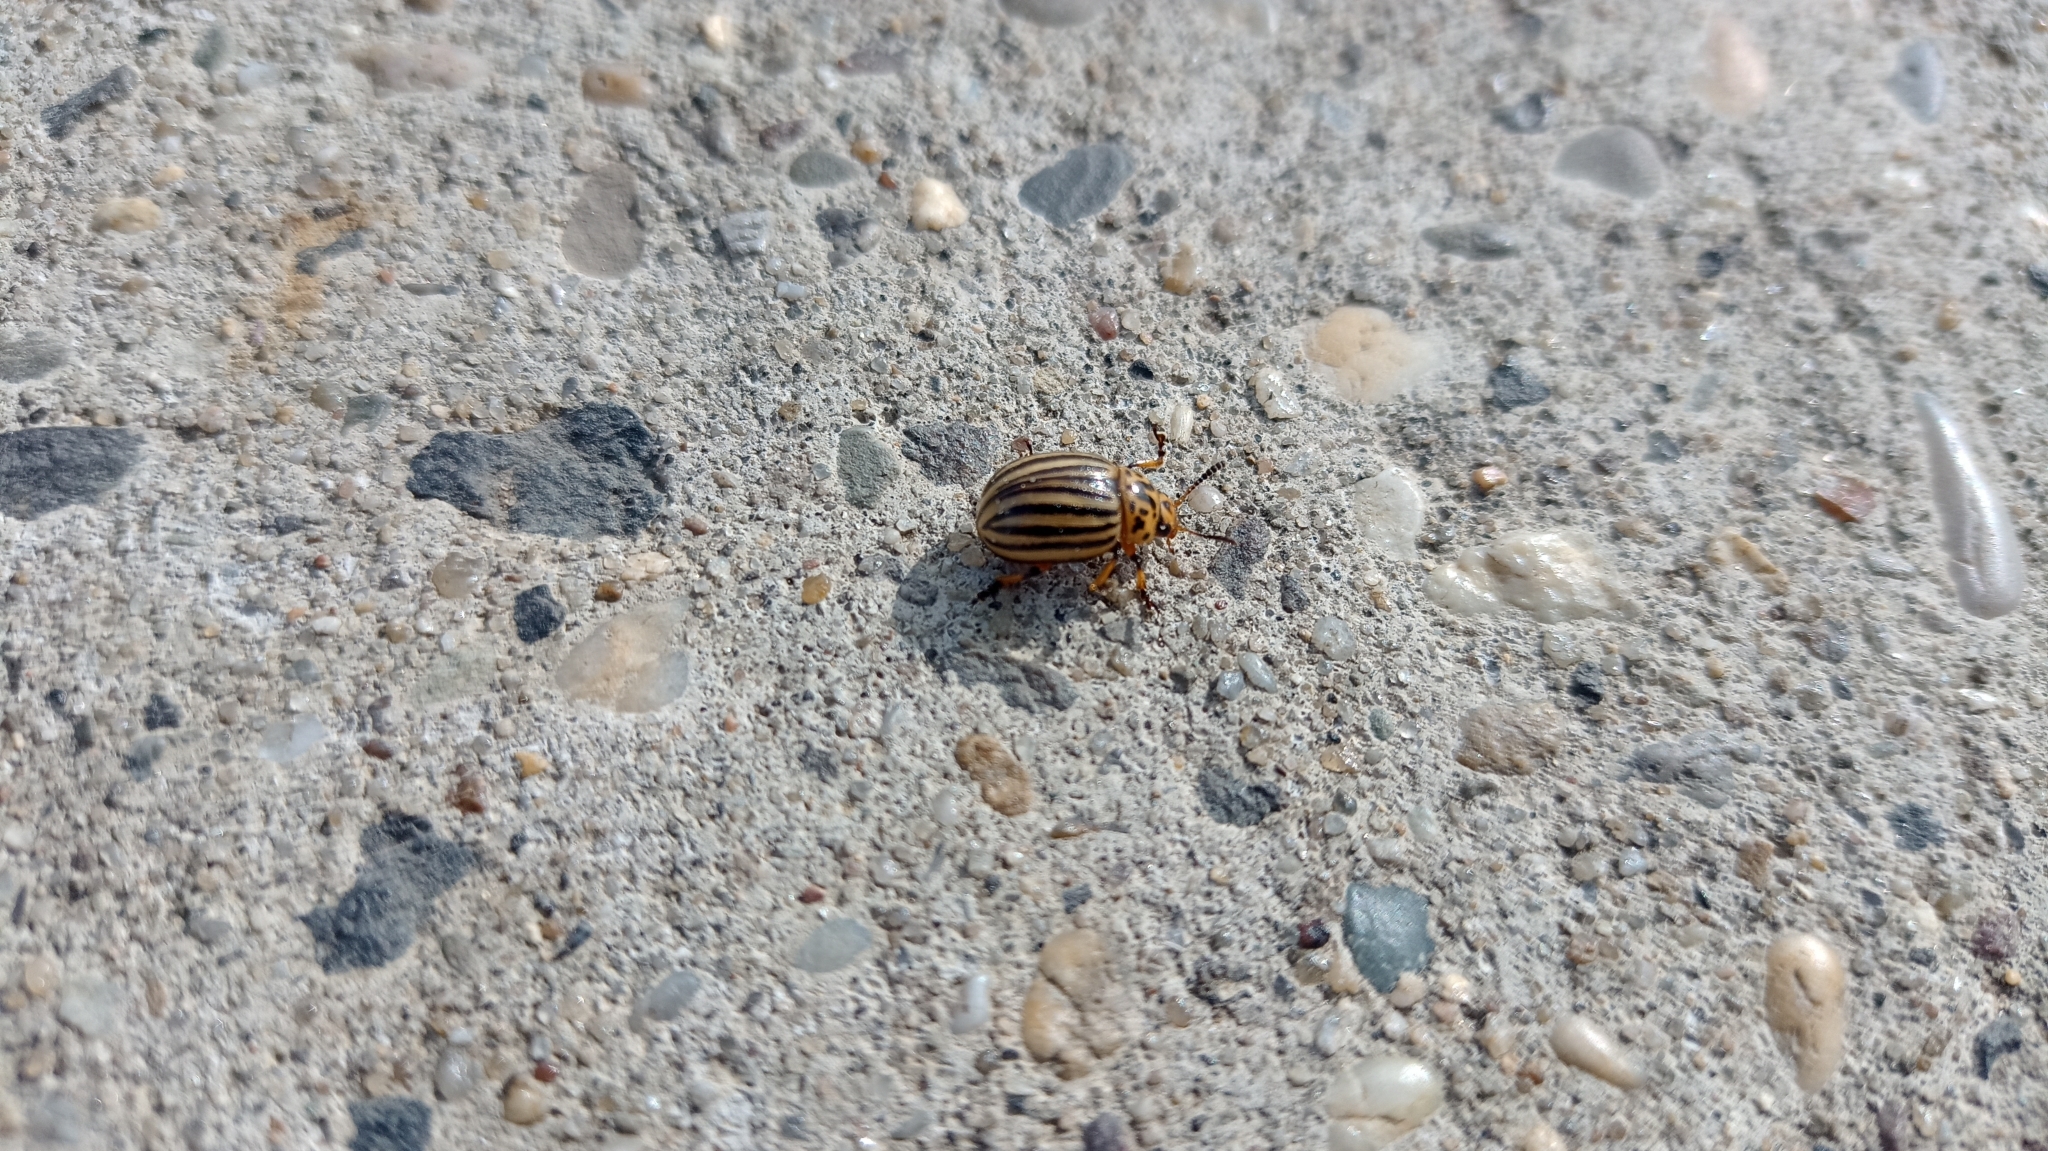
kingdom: Animalia
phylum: Arthropoda
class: Insecta
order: Coleoptera
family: Chrysomelidae
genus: Leptinotarsa
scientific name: Leptinotarsa decemlineata
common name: Colorado potato beetle
